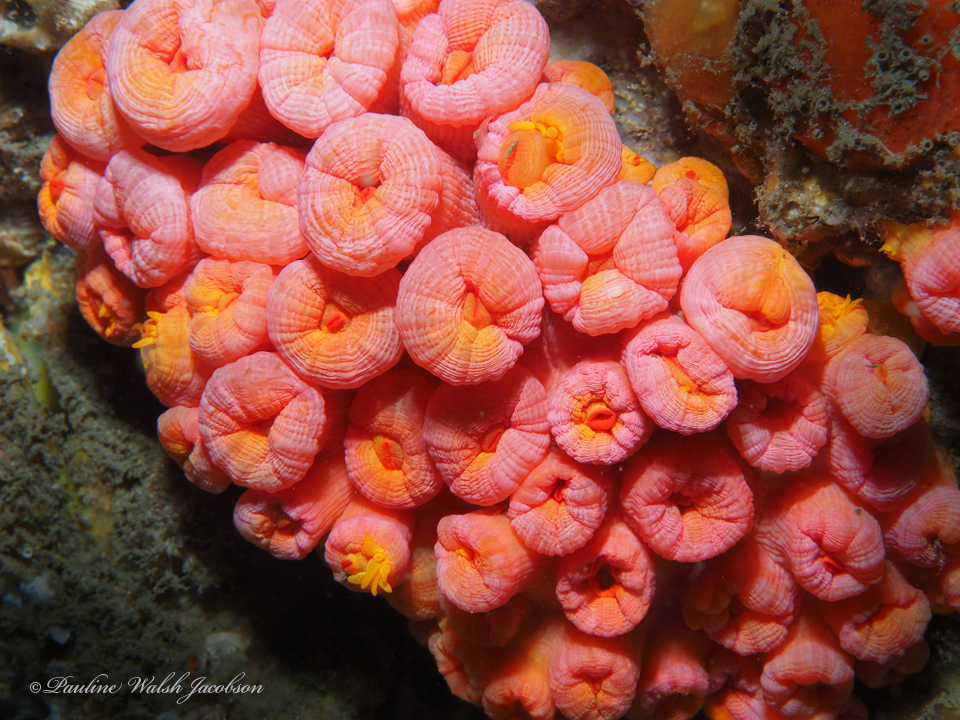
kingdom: Animalia
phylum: Cnidaria
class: Anthozoa
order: Scleractinia
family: Dendrophylliidae
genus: Tubastraea
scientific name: Tubastraea coccinea
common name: Orange cup coral
